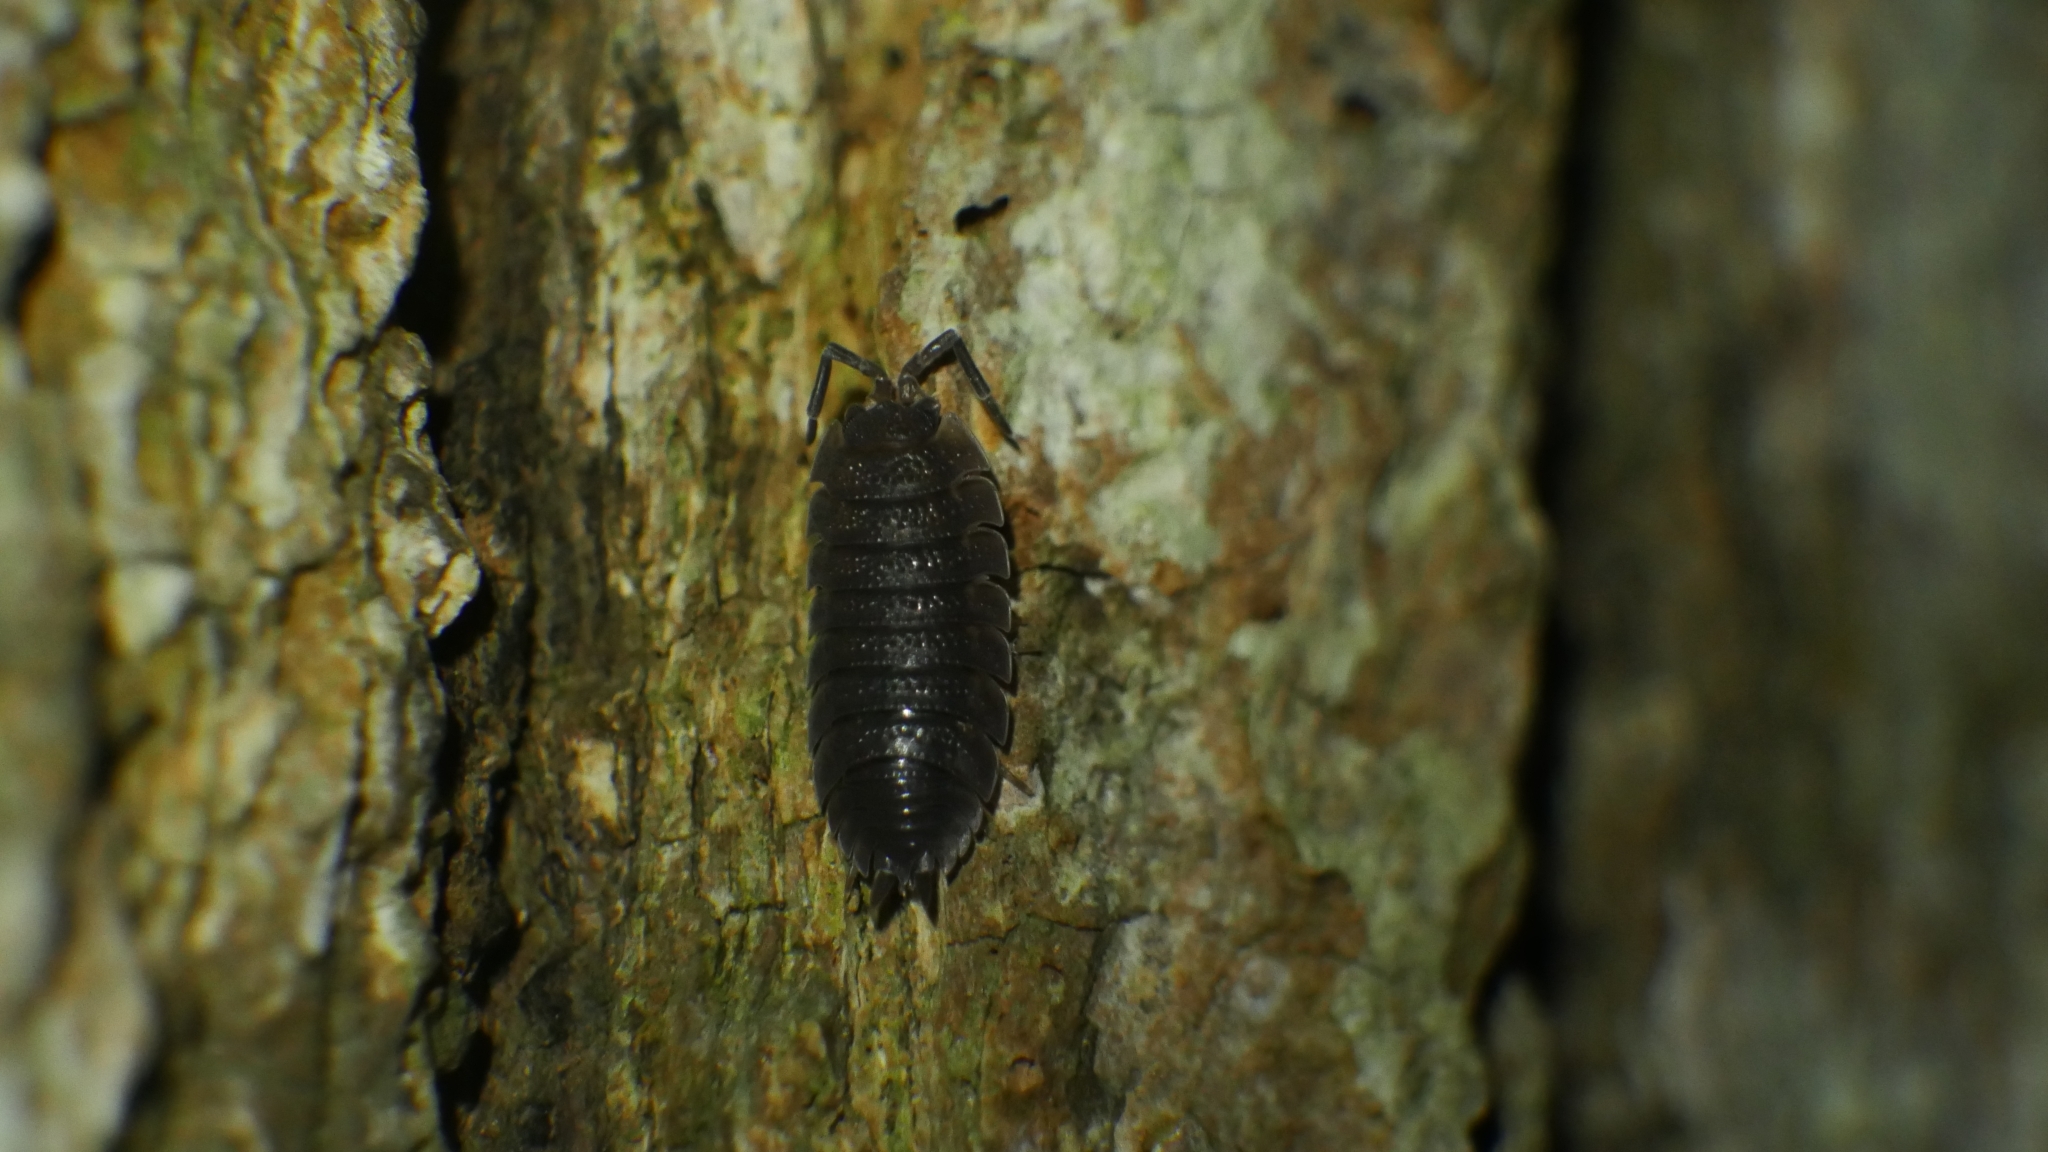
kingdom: Animalia
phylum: Arthropoda
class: Malacostraca
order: Isopoda
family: Porcellionidae
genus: Porcellio
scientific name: Porcellio scaber
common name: Common rough woodlouse
